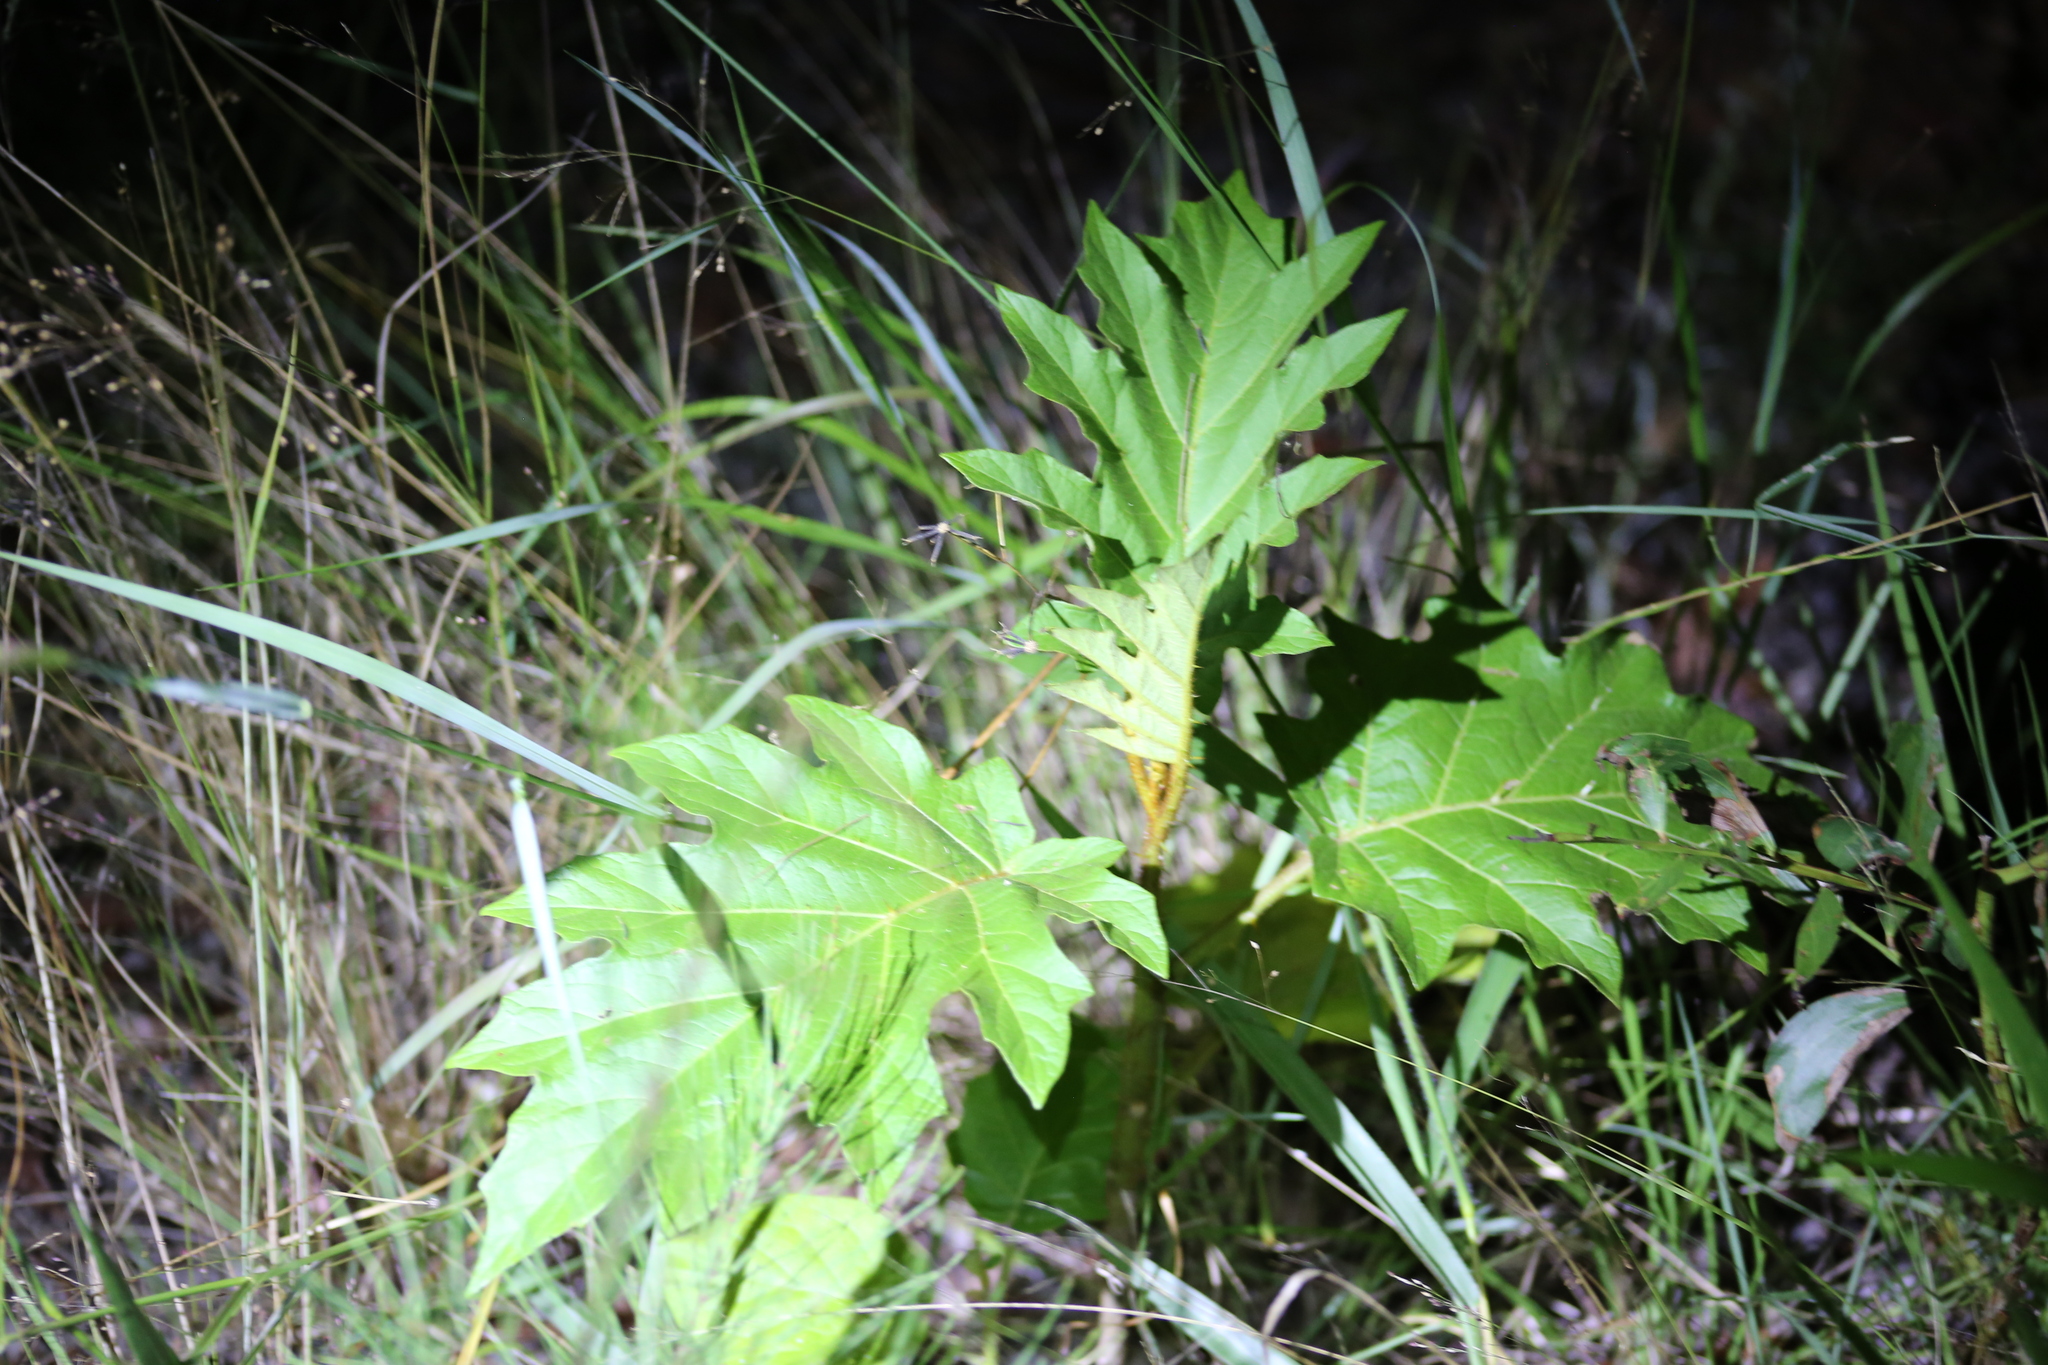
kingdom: Plantae
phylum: Tracheophyta
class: Magnoliopsida
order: Solanales
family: Solanaceae
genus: Solanum
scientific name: Solanum chrysotrichum
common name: Nightshade
